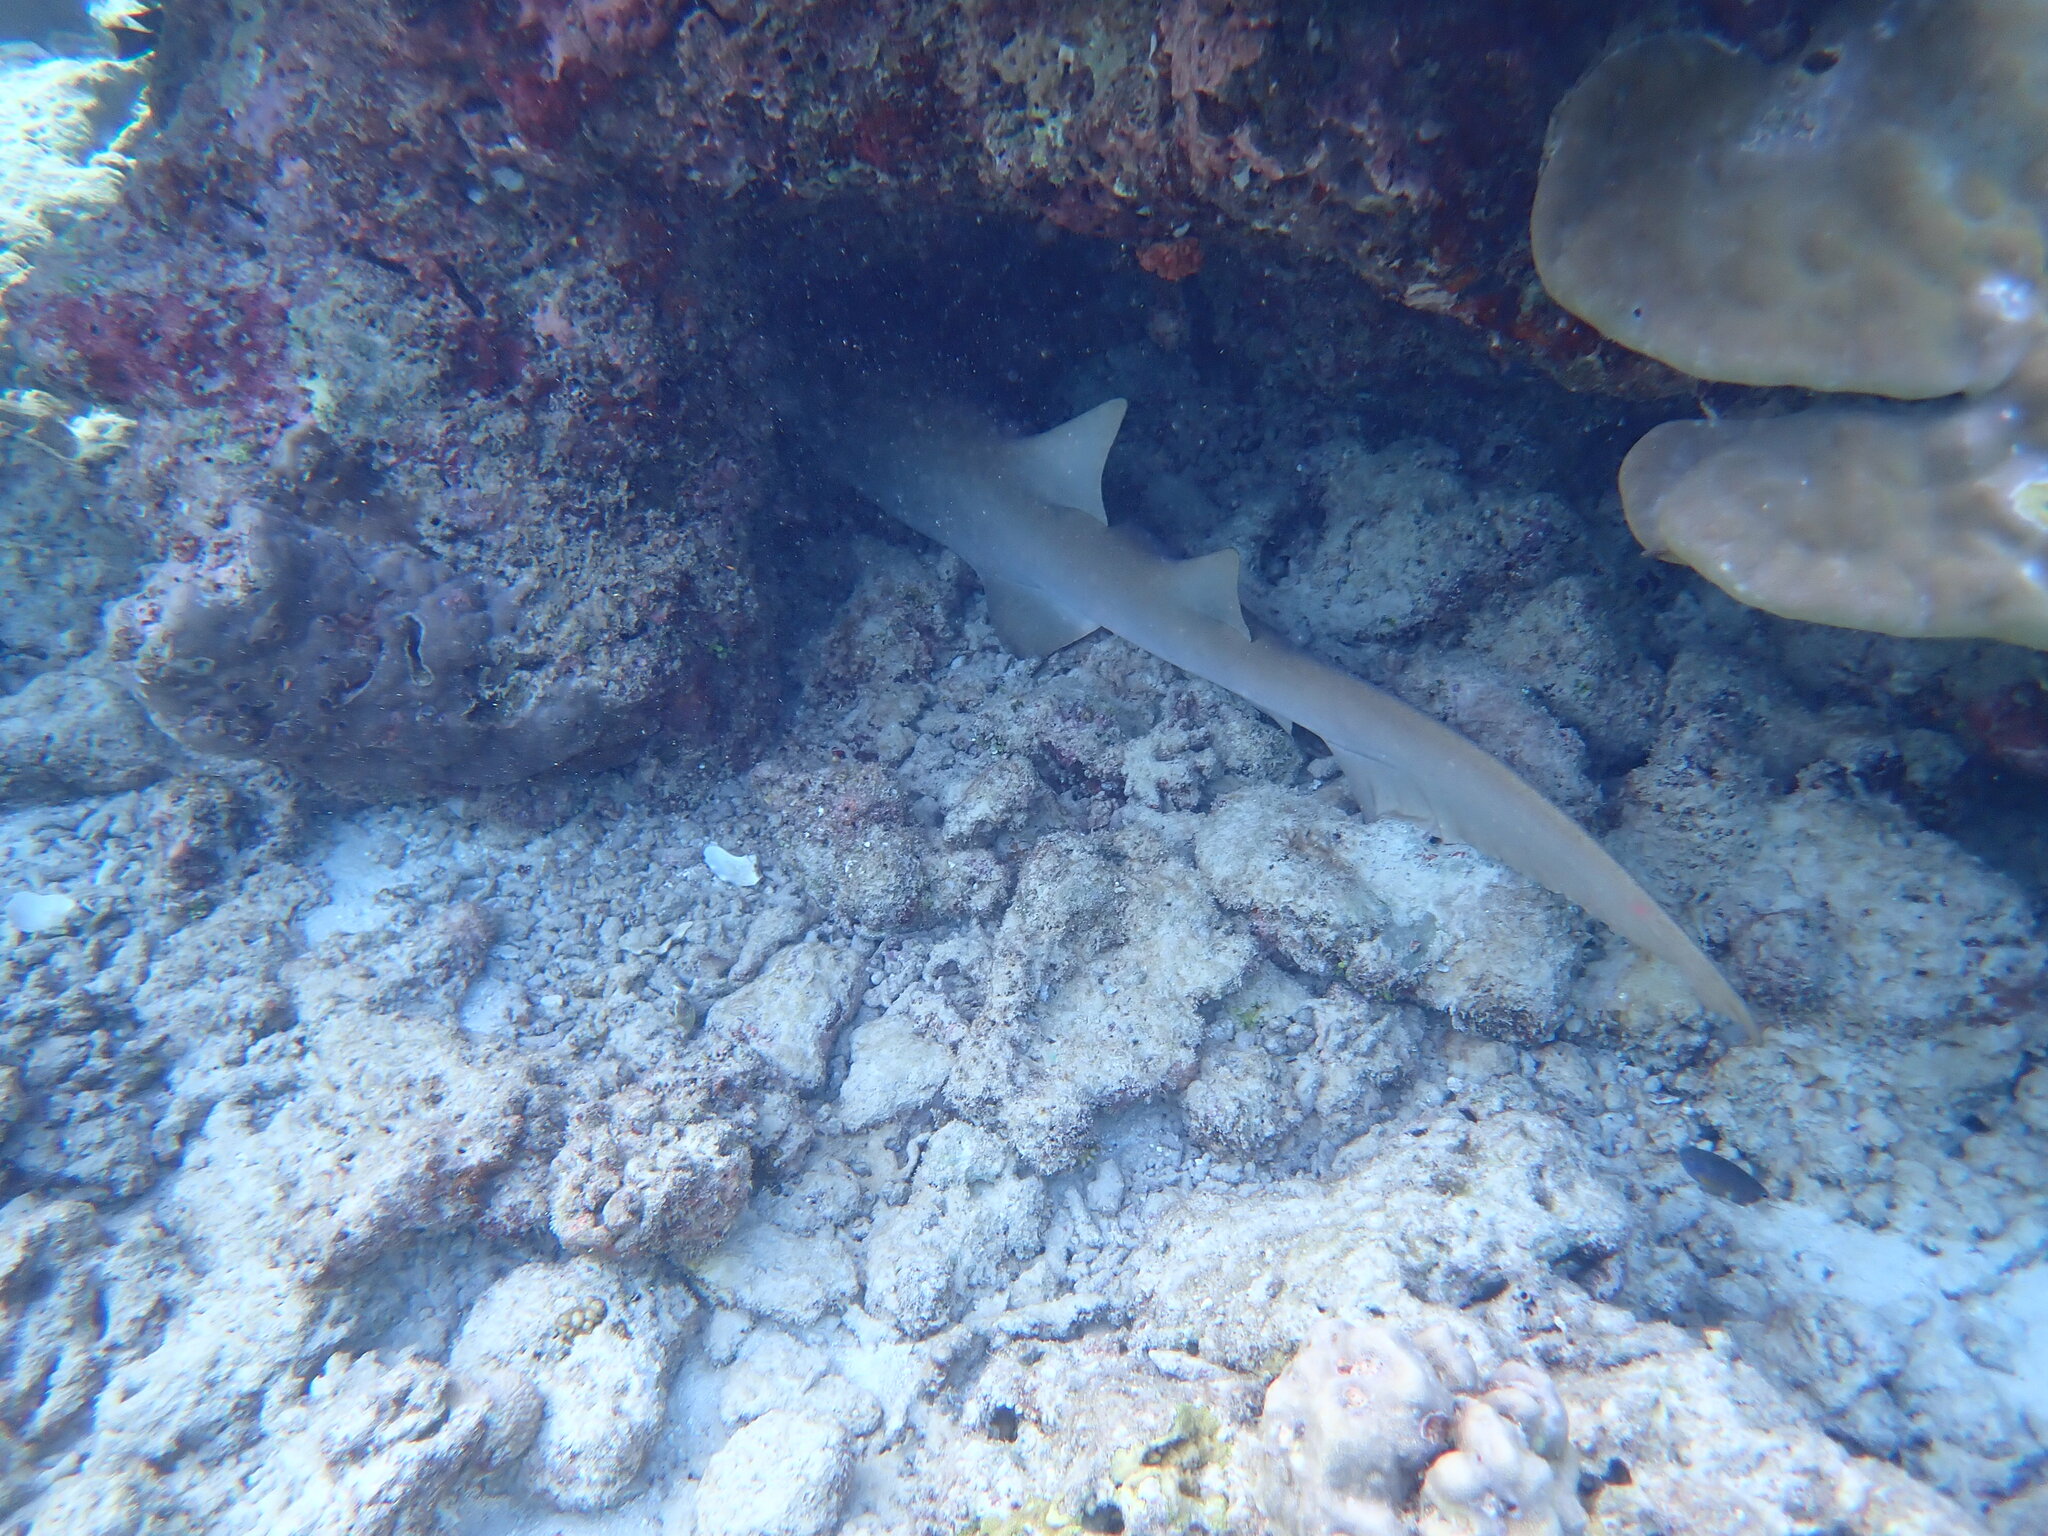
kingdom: Animalia
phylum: Chordata
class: Elasmobranchii
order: Orectolobiformes
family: Ginglymostomatidae
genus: Nebrius
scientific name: Nebrius ferrugineus
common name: Tawny nurse shark
